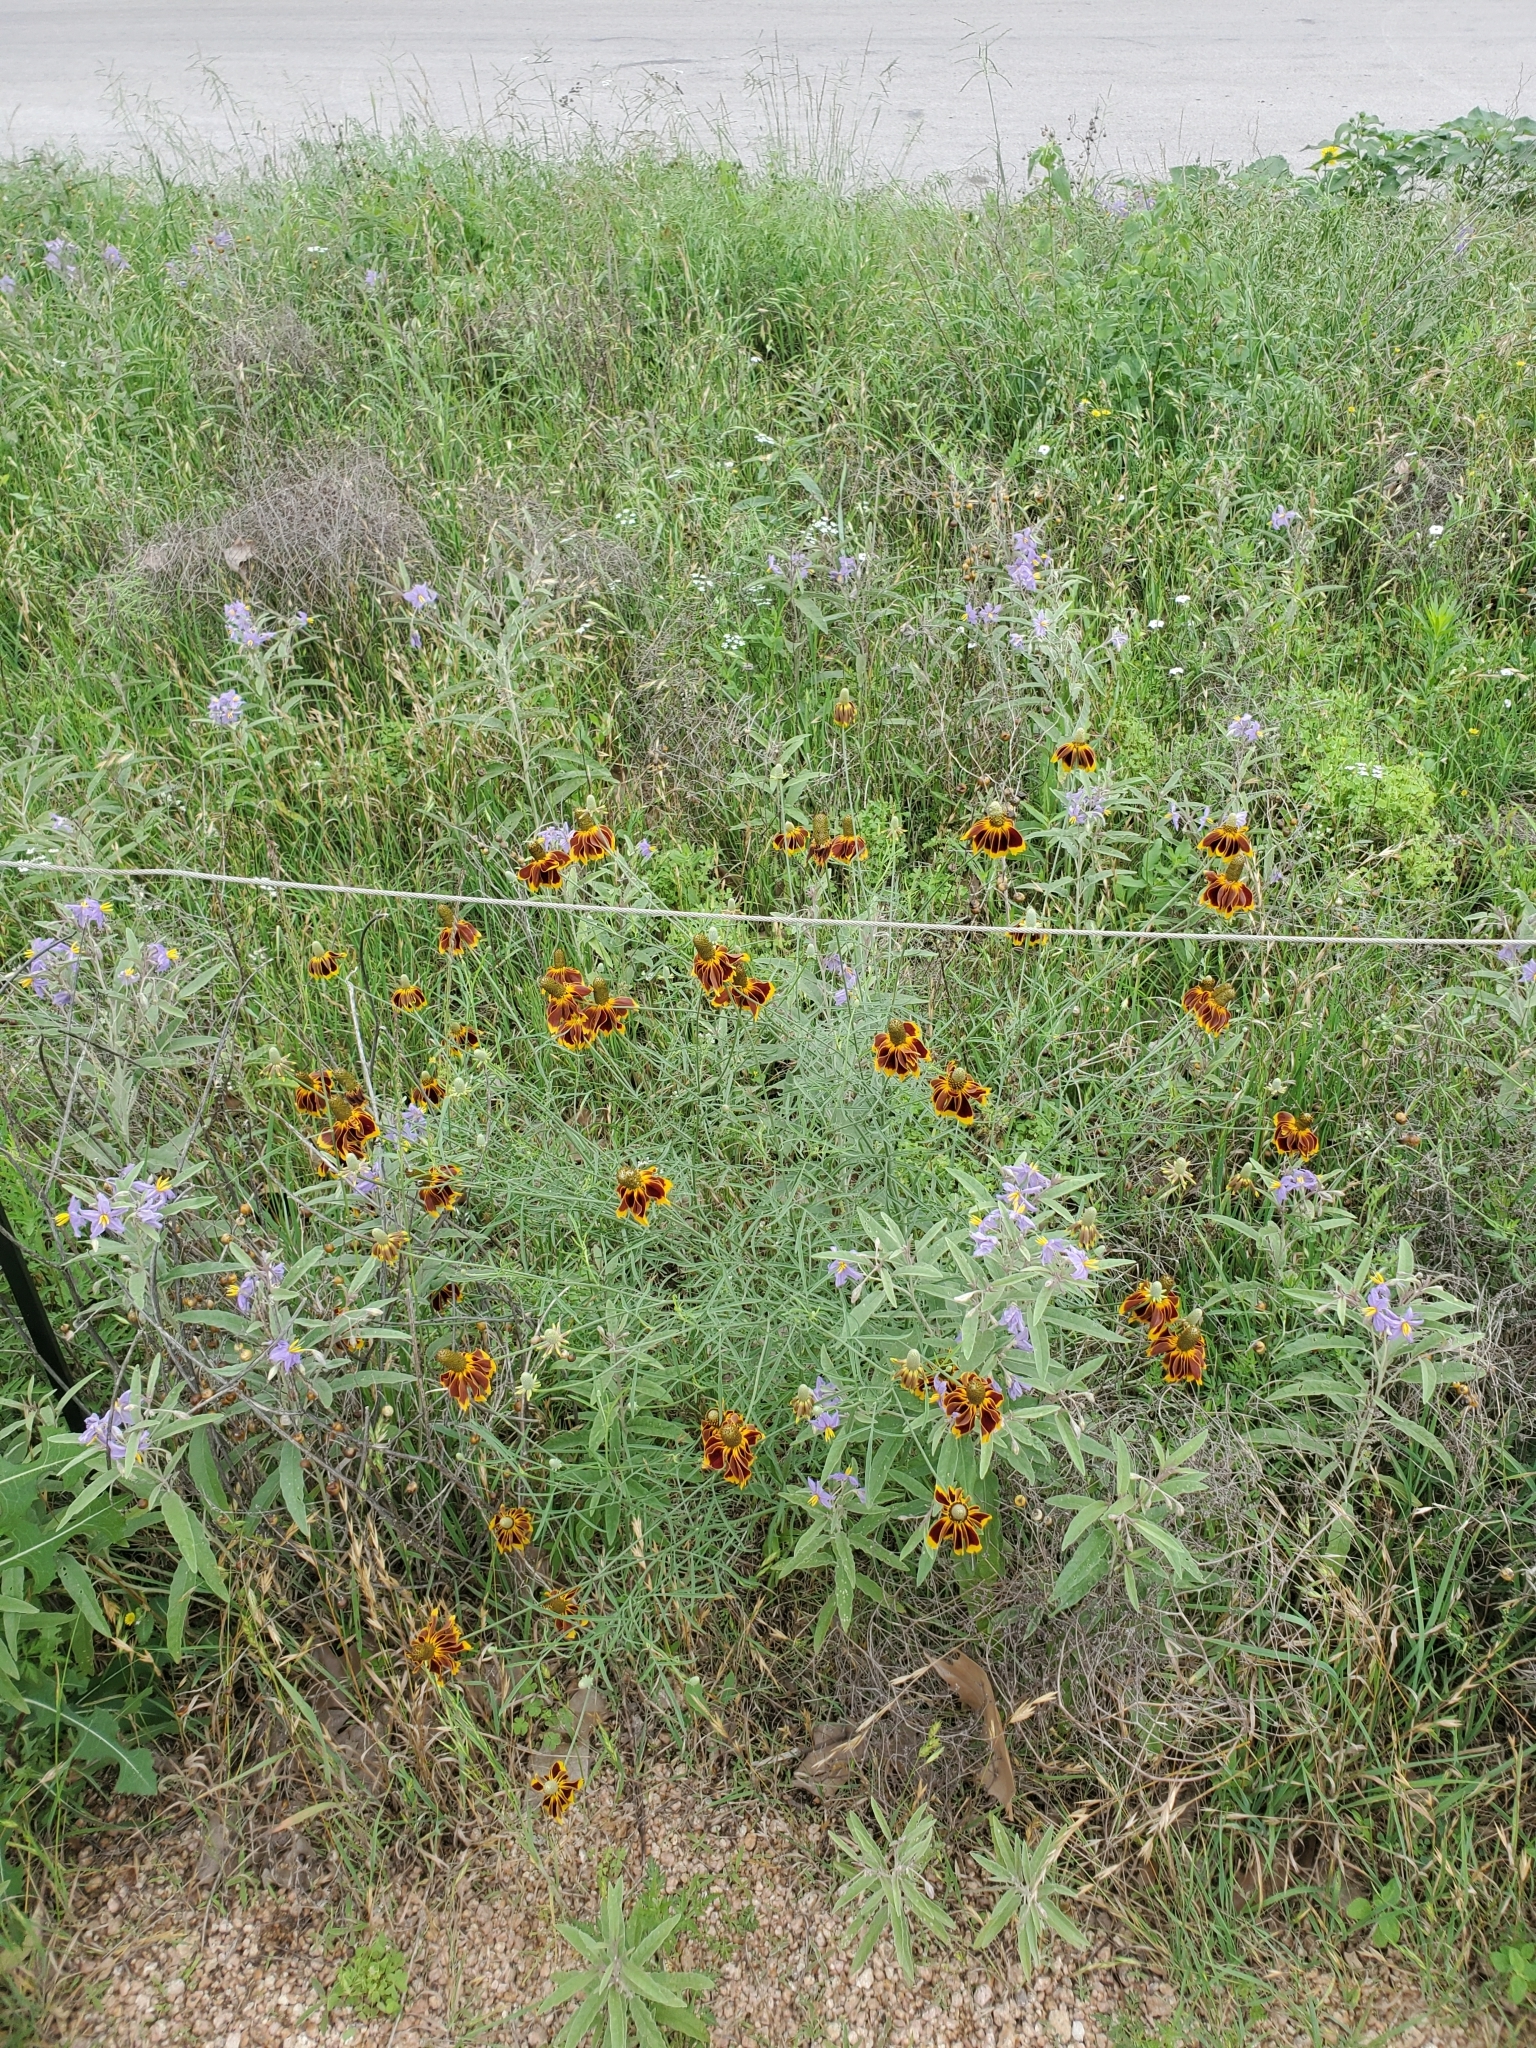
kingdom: Plantae
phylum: Tracheophyta
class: Magnoliopsida
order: Asterales
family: Asteraceae
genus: Ratibida
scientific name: Ratibida columnifera
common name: Prairie coneflower
